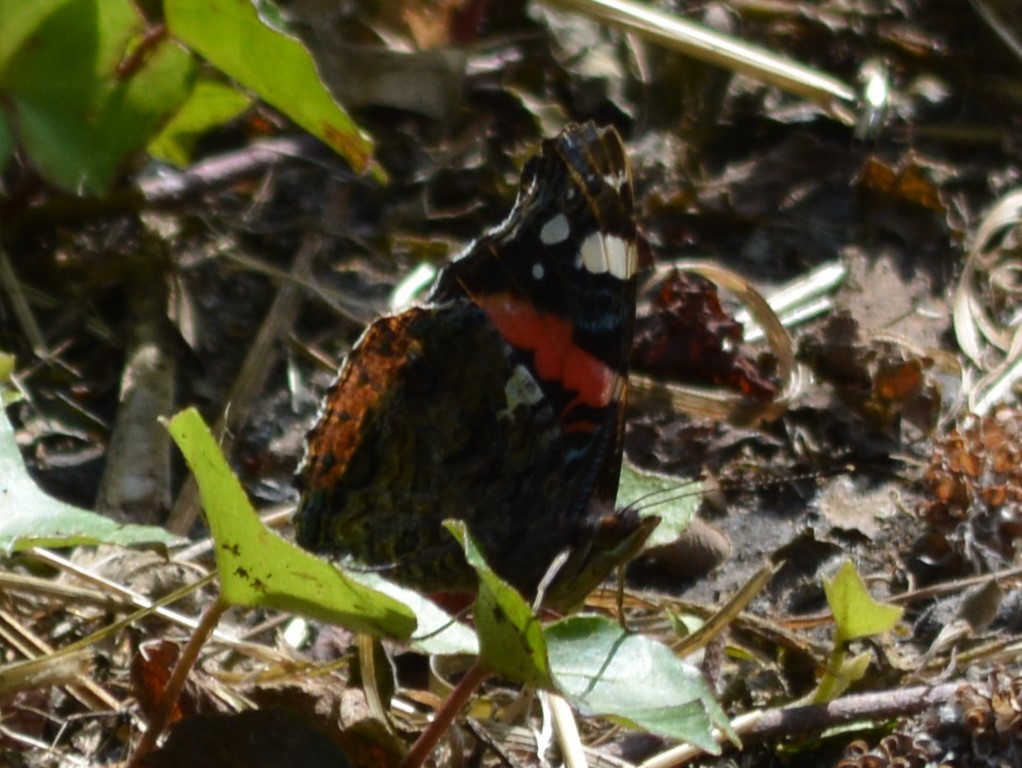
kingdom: Animalia
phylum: Arthropoda
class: Insecta
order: Lepidoptera
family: Nymphalidae
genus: Vanessa
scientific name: Vanessa atalanta
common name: Red admiral
